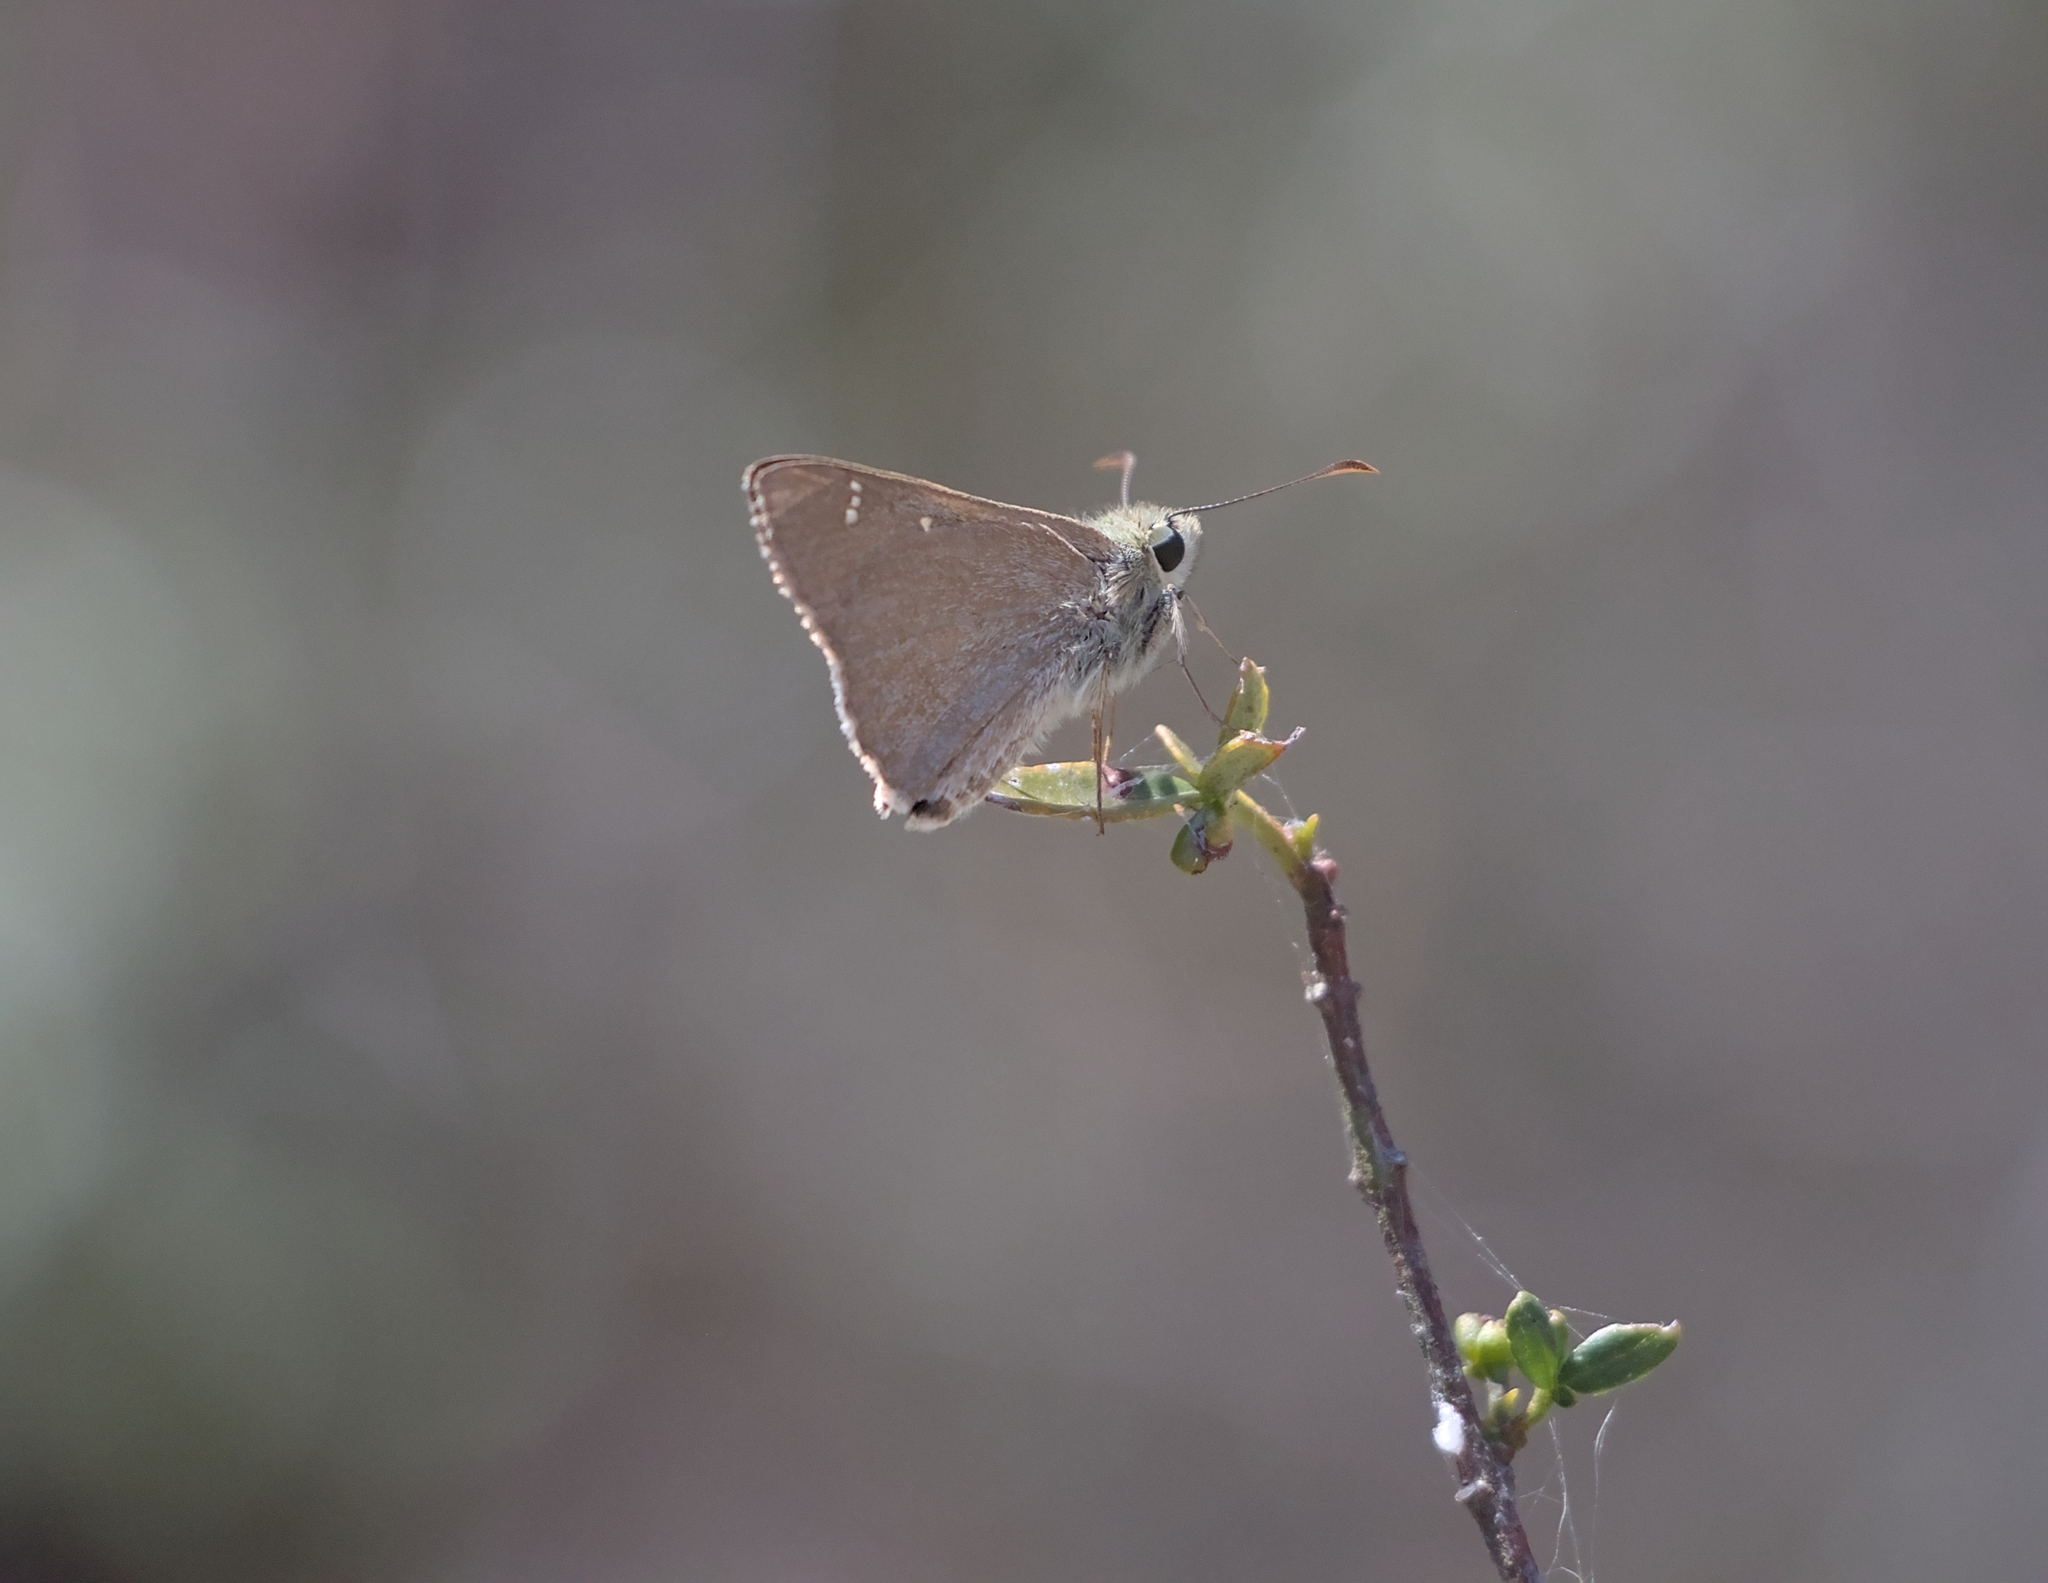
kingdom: Animalia
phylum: Arthropoda
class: Insecta
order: Lepidoptera
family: Hesperiidae
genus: Toxidia
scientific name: Toxidia
